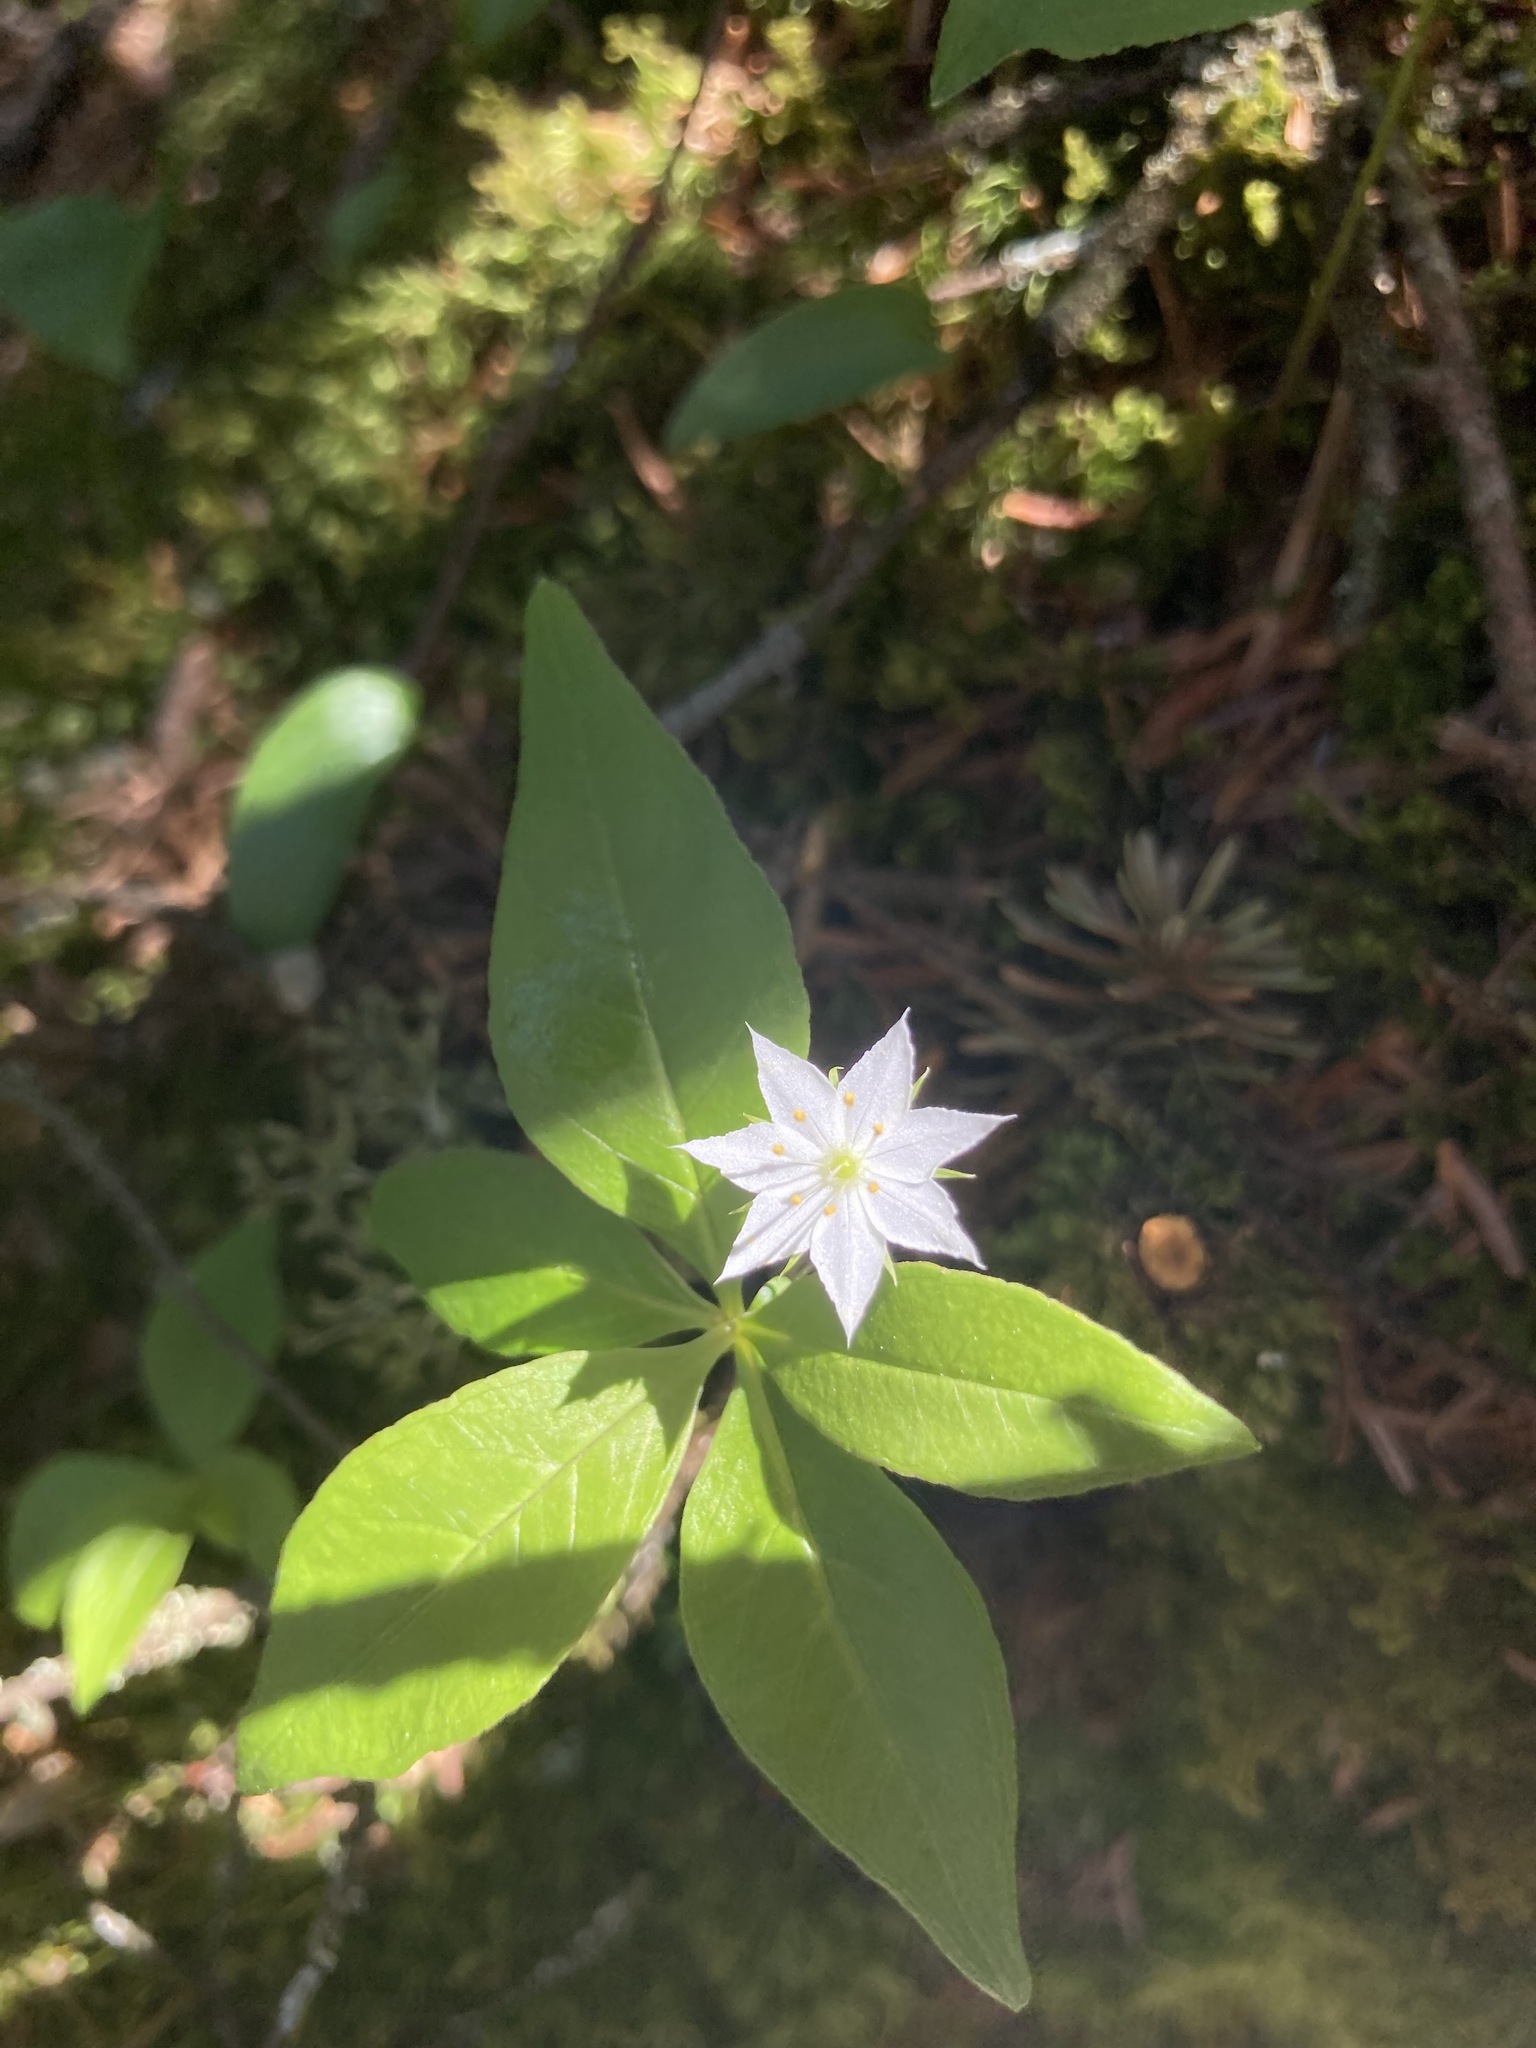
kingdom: Plantae
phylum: Tracheophyta
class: Magnoliopsida
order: Ericales
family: Primulaceae
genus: Lysimachia
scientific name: Lysimachia borealis
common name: American starflower
